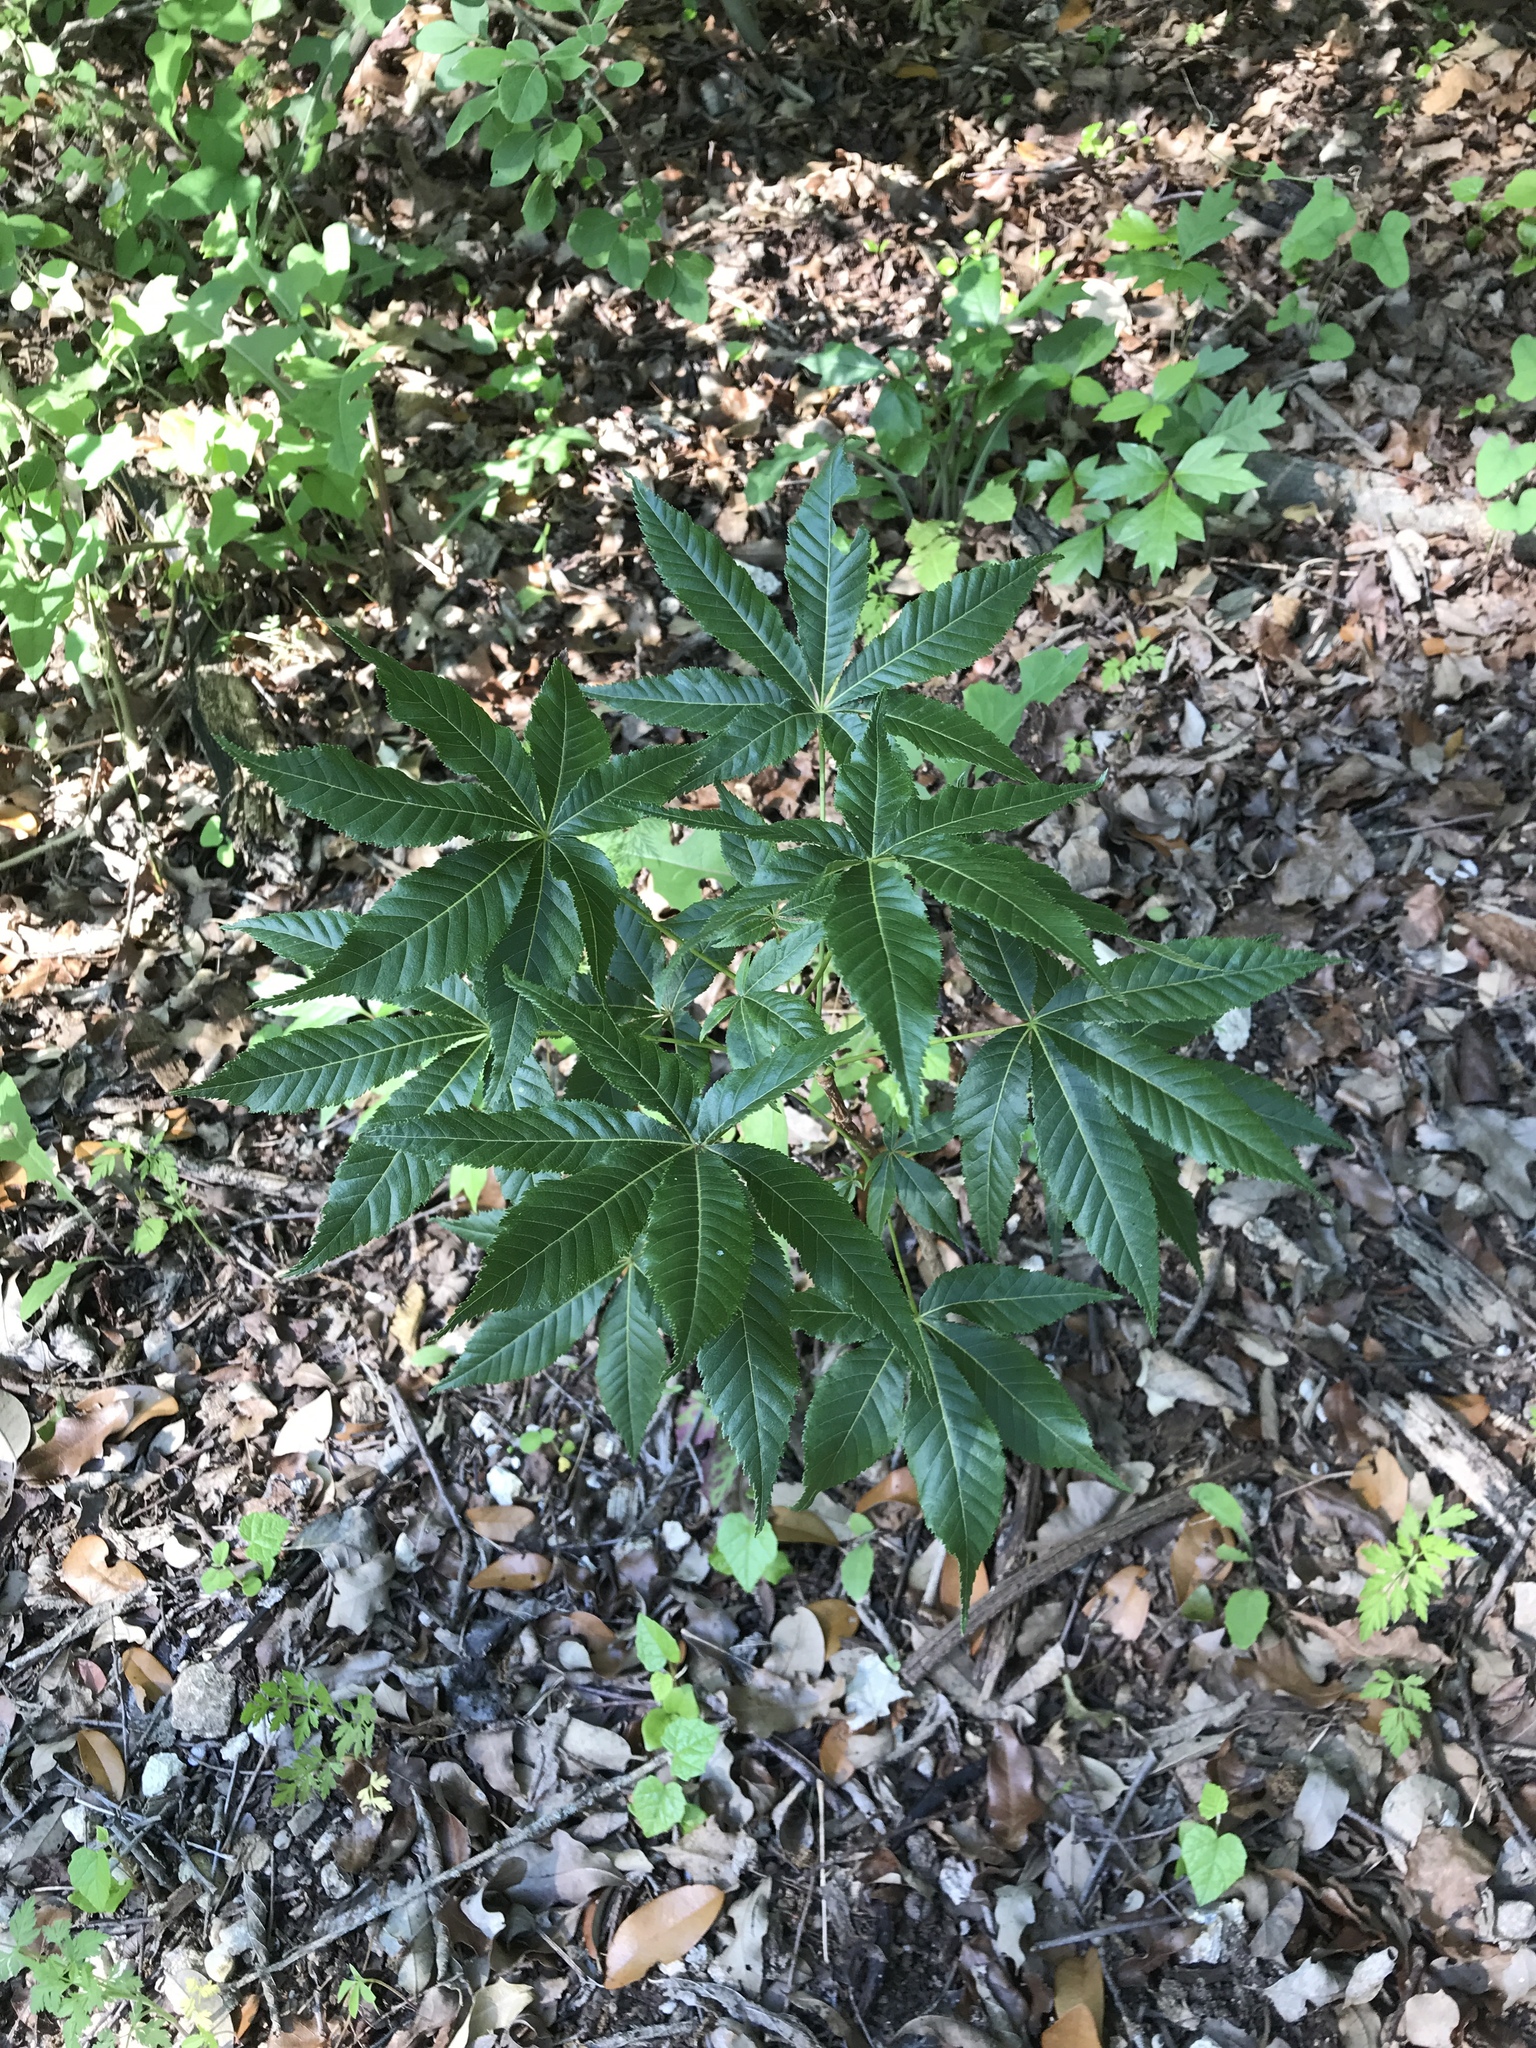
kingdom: Plantae
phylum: Tracheophyta
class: Magnoliopsida
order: Sapindales
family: Sapindaceae
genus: Aesculus
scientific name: Aesculus glabra
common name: Ohio buckeye
